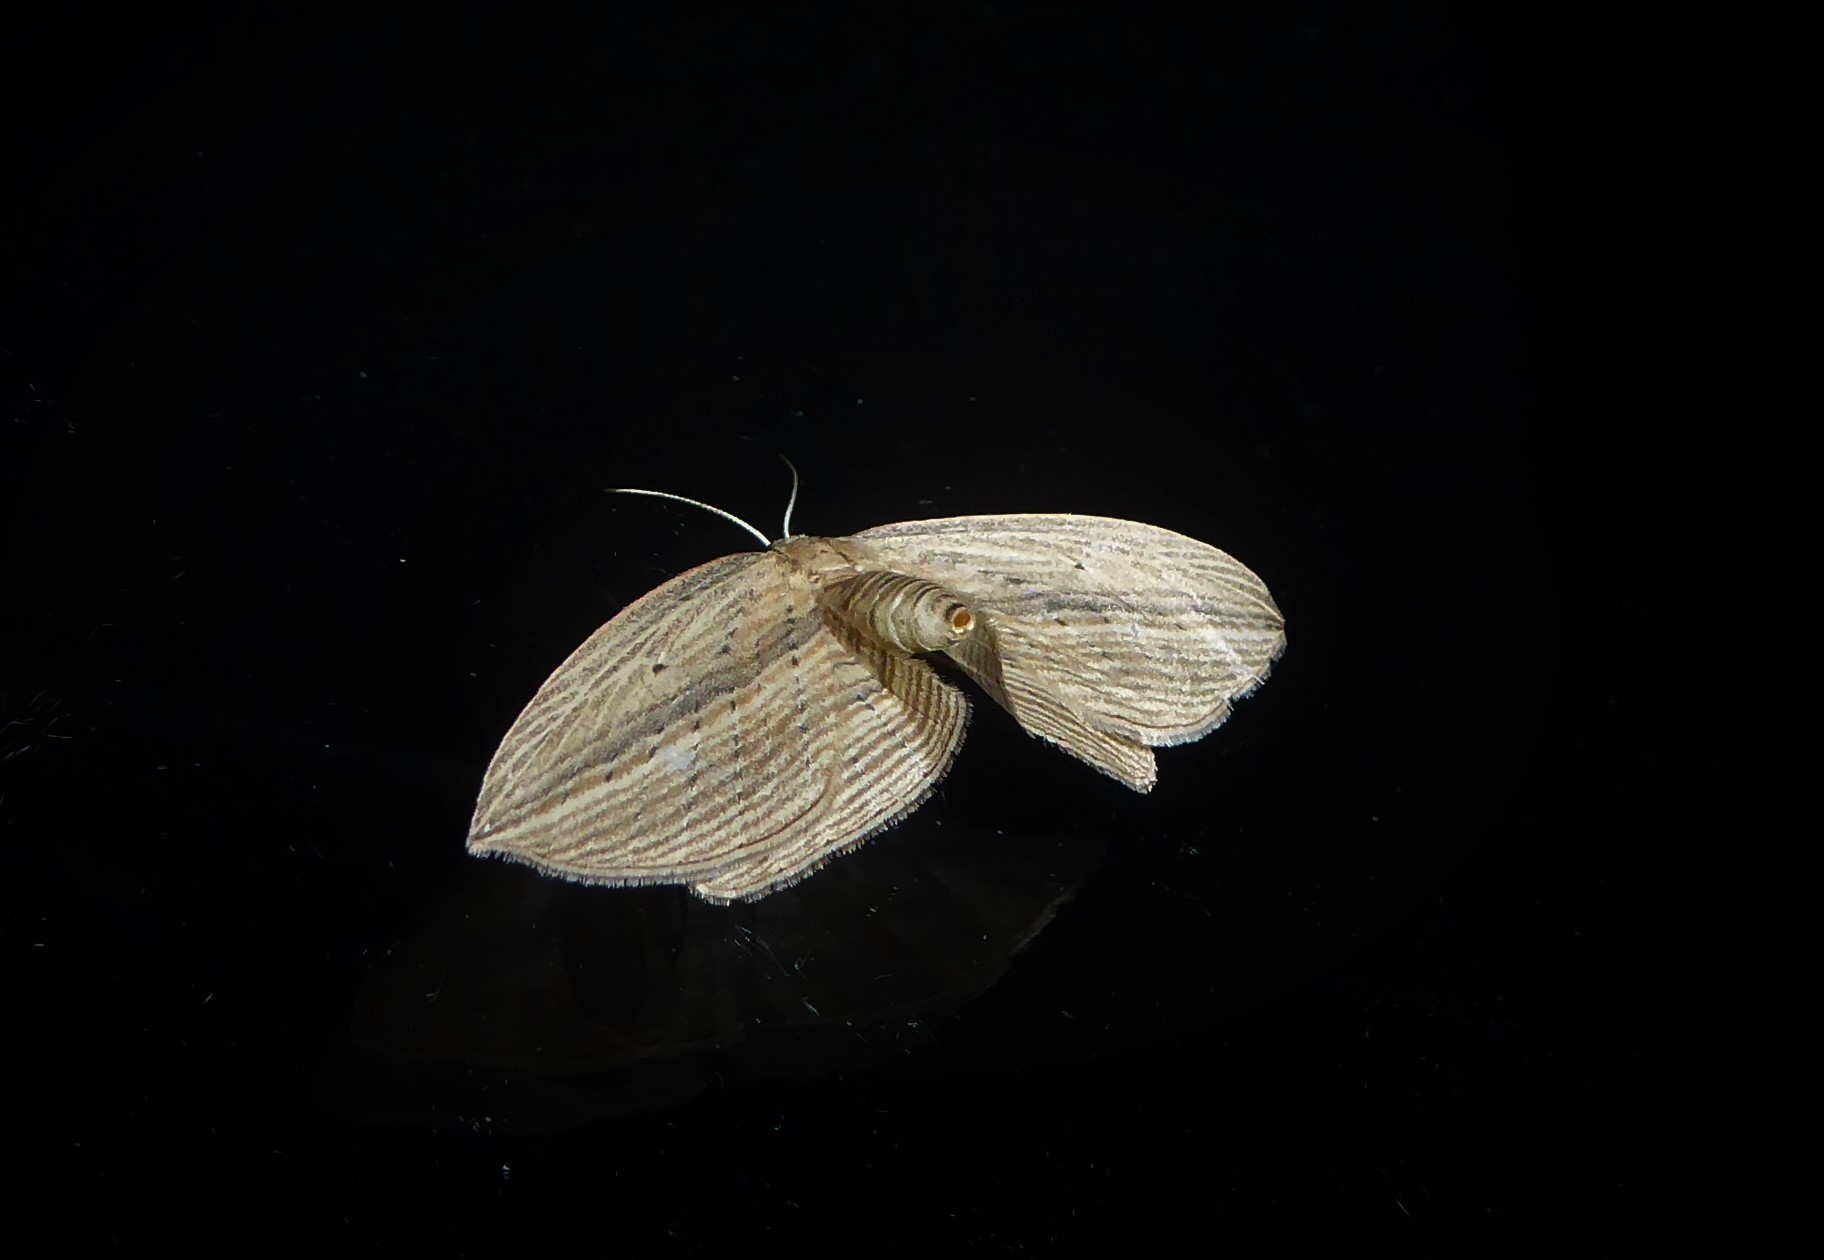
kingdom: Animalia
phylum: Arthropoda
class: Insecta
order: Lepidoptera
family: Geometridae
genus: Epiphryne
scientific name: Epiphryne verriculata
